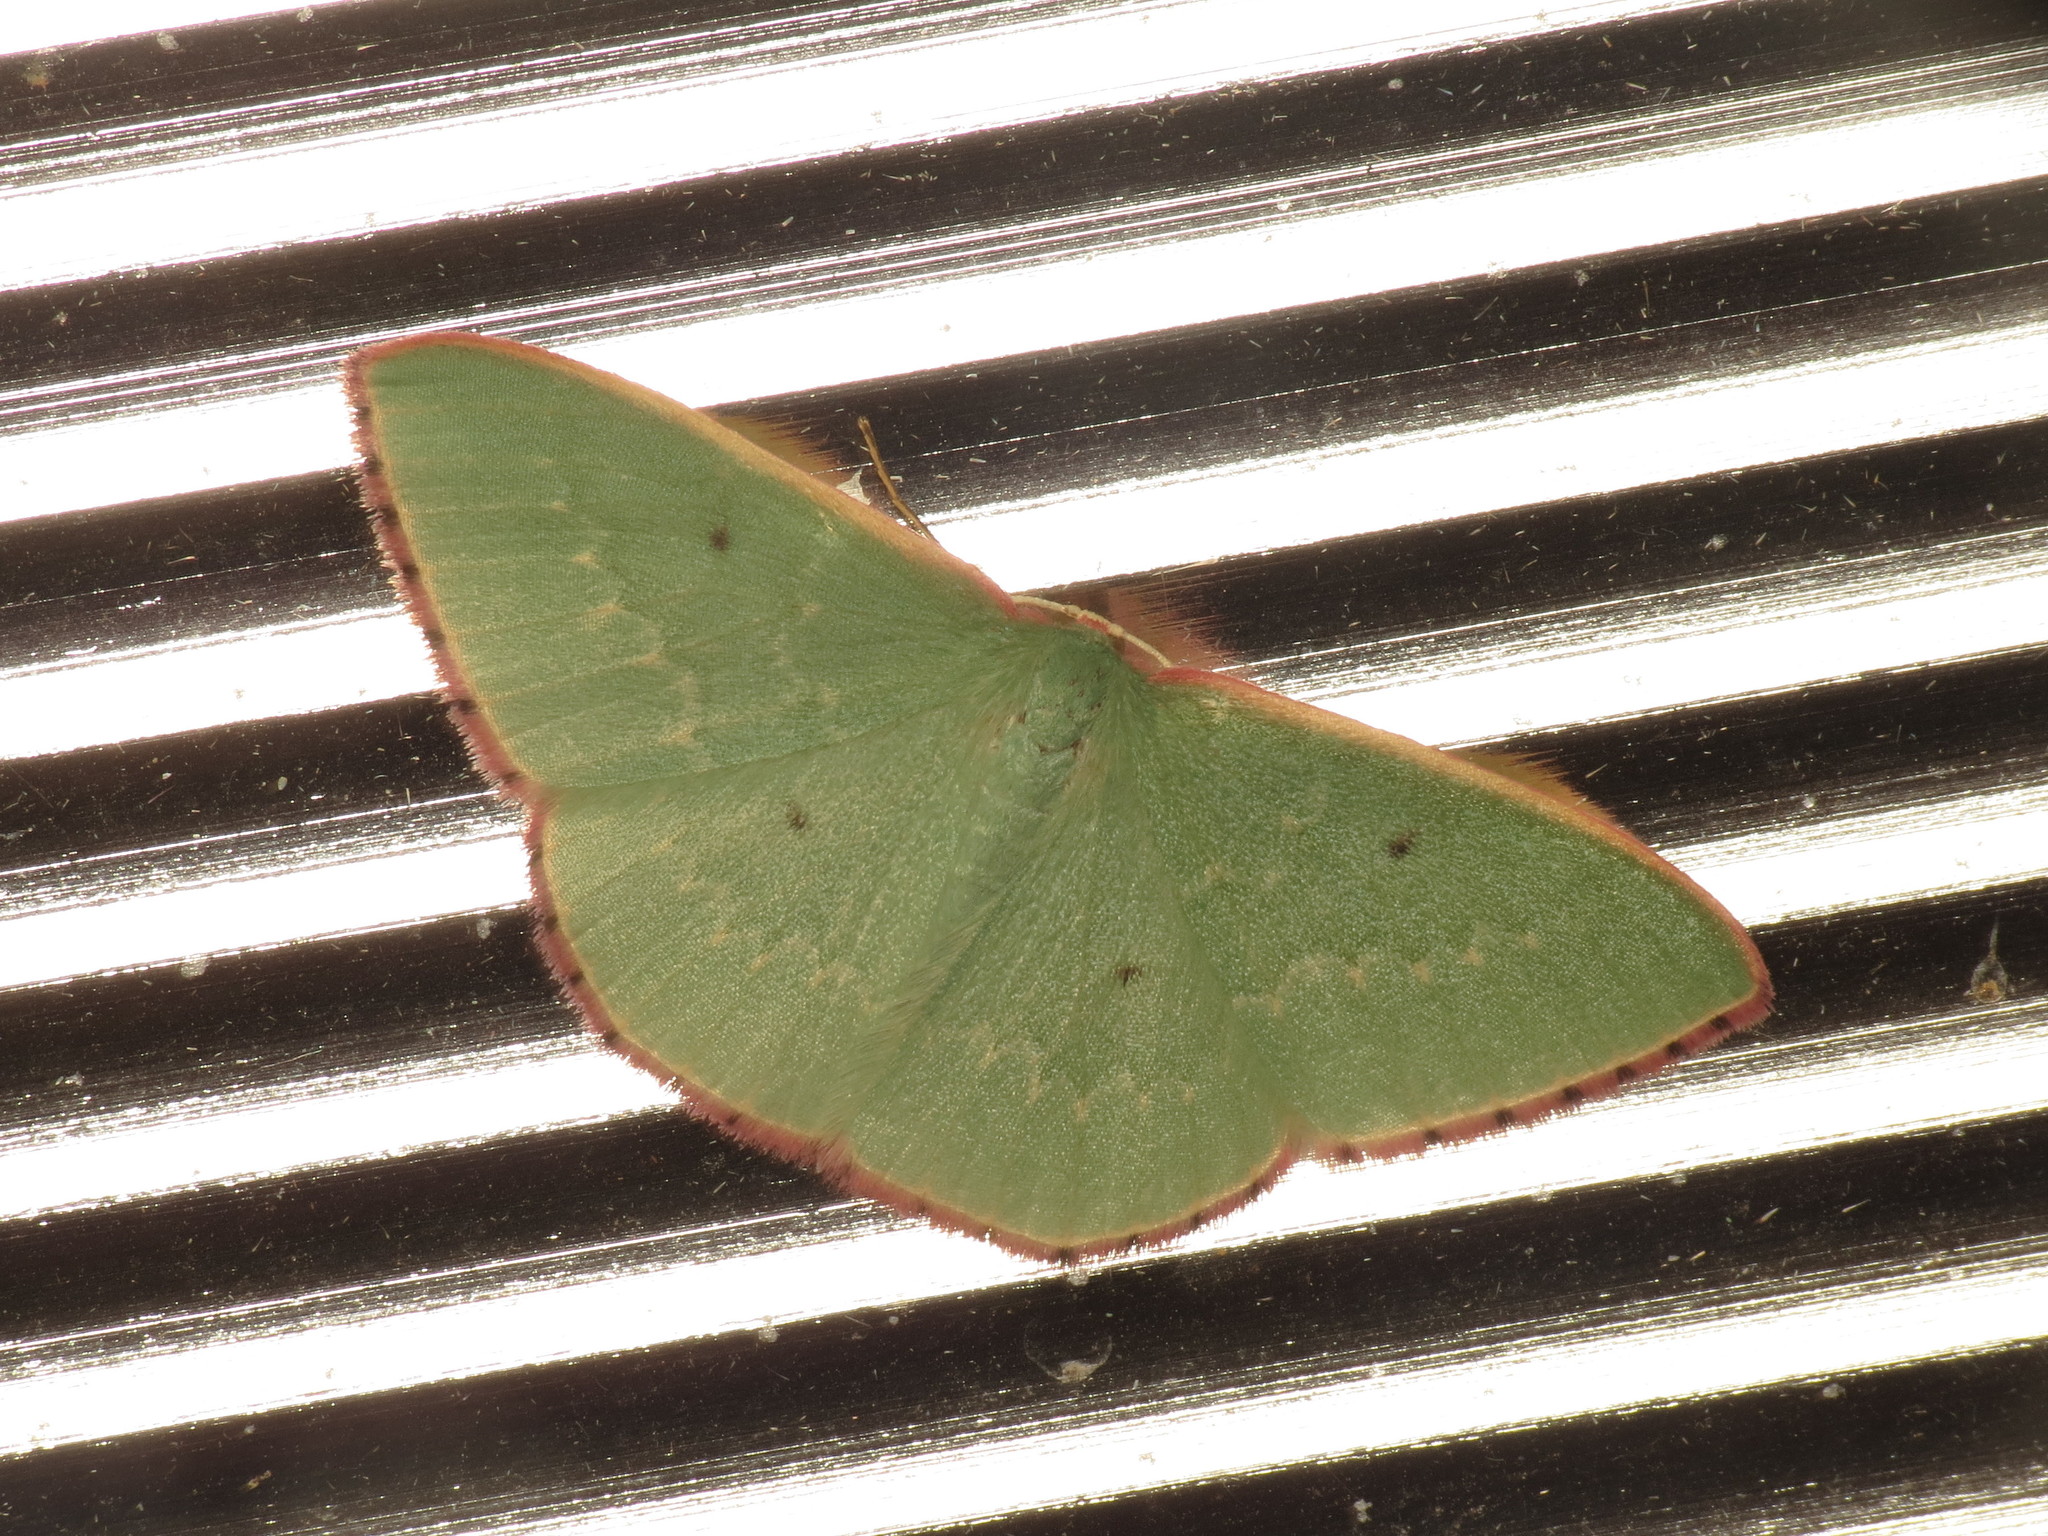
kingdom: Animalia
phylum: Arthropoda
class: Insecta
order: Lepidoptera
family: Geometridae
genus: Chlorocoma
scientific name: Chlorocoma externa
